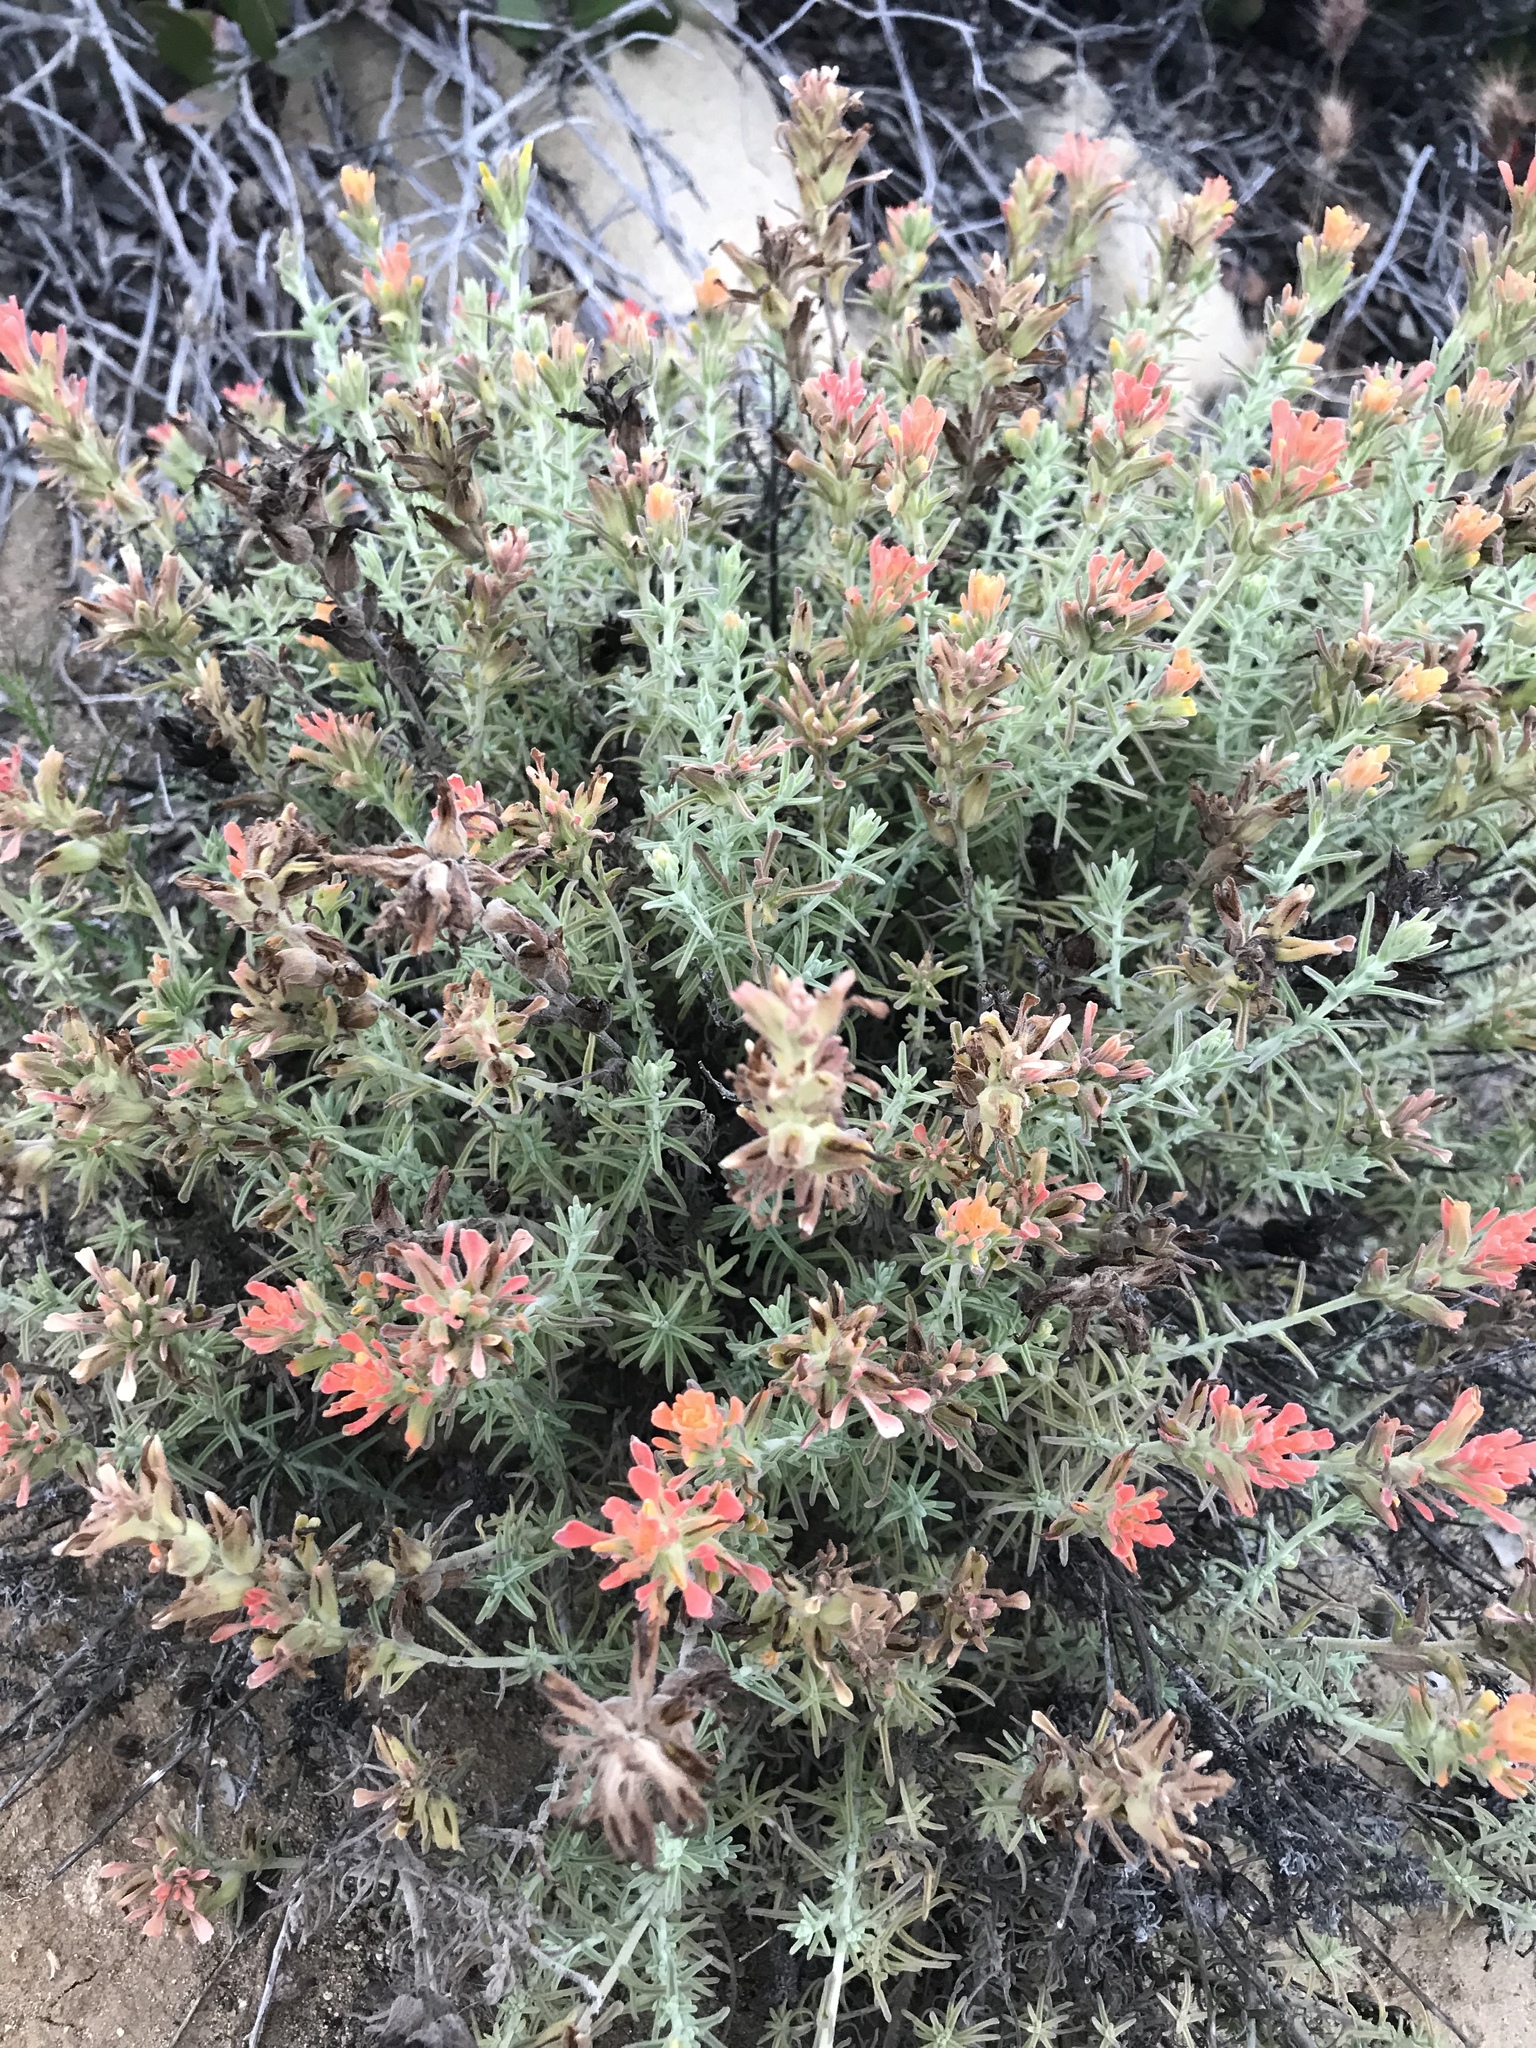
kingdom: Plantae
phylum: Tracheophyta
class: Magnoliopsida
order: Lamiales
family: Orobanchaceae
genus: Castilleja
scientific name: Castilleja foliolosa
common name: Woolly indian paintbrush
